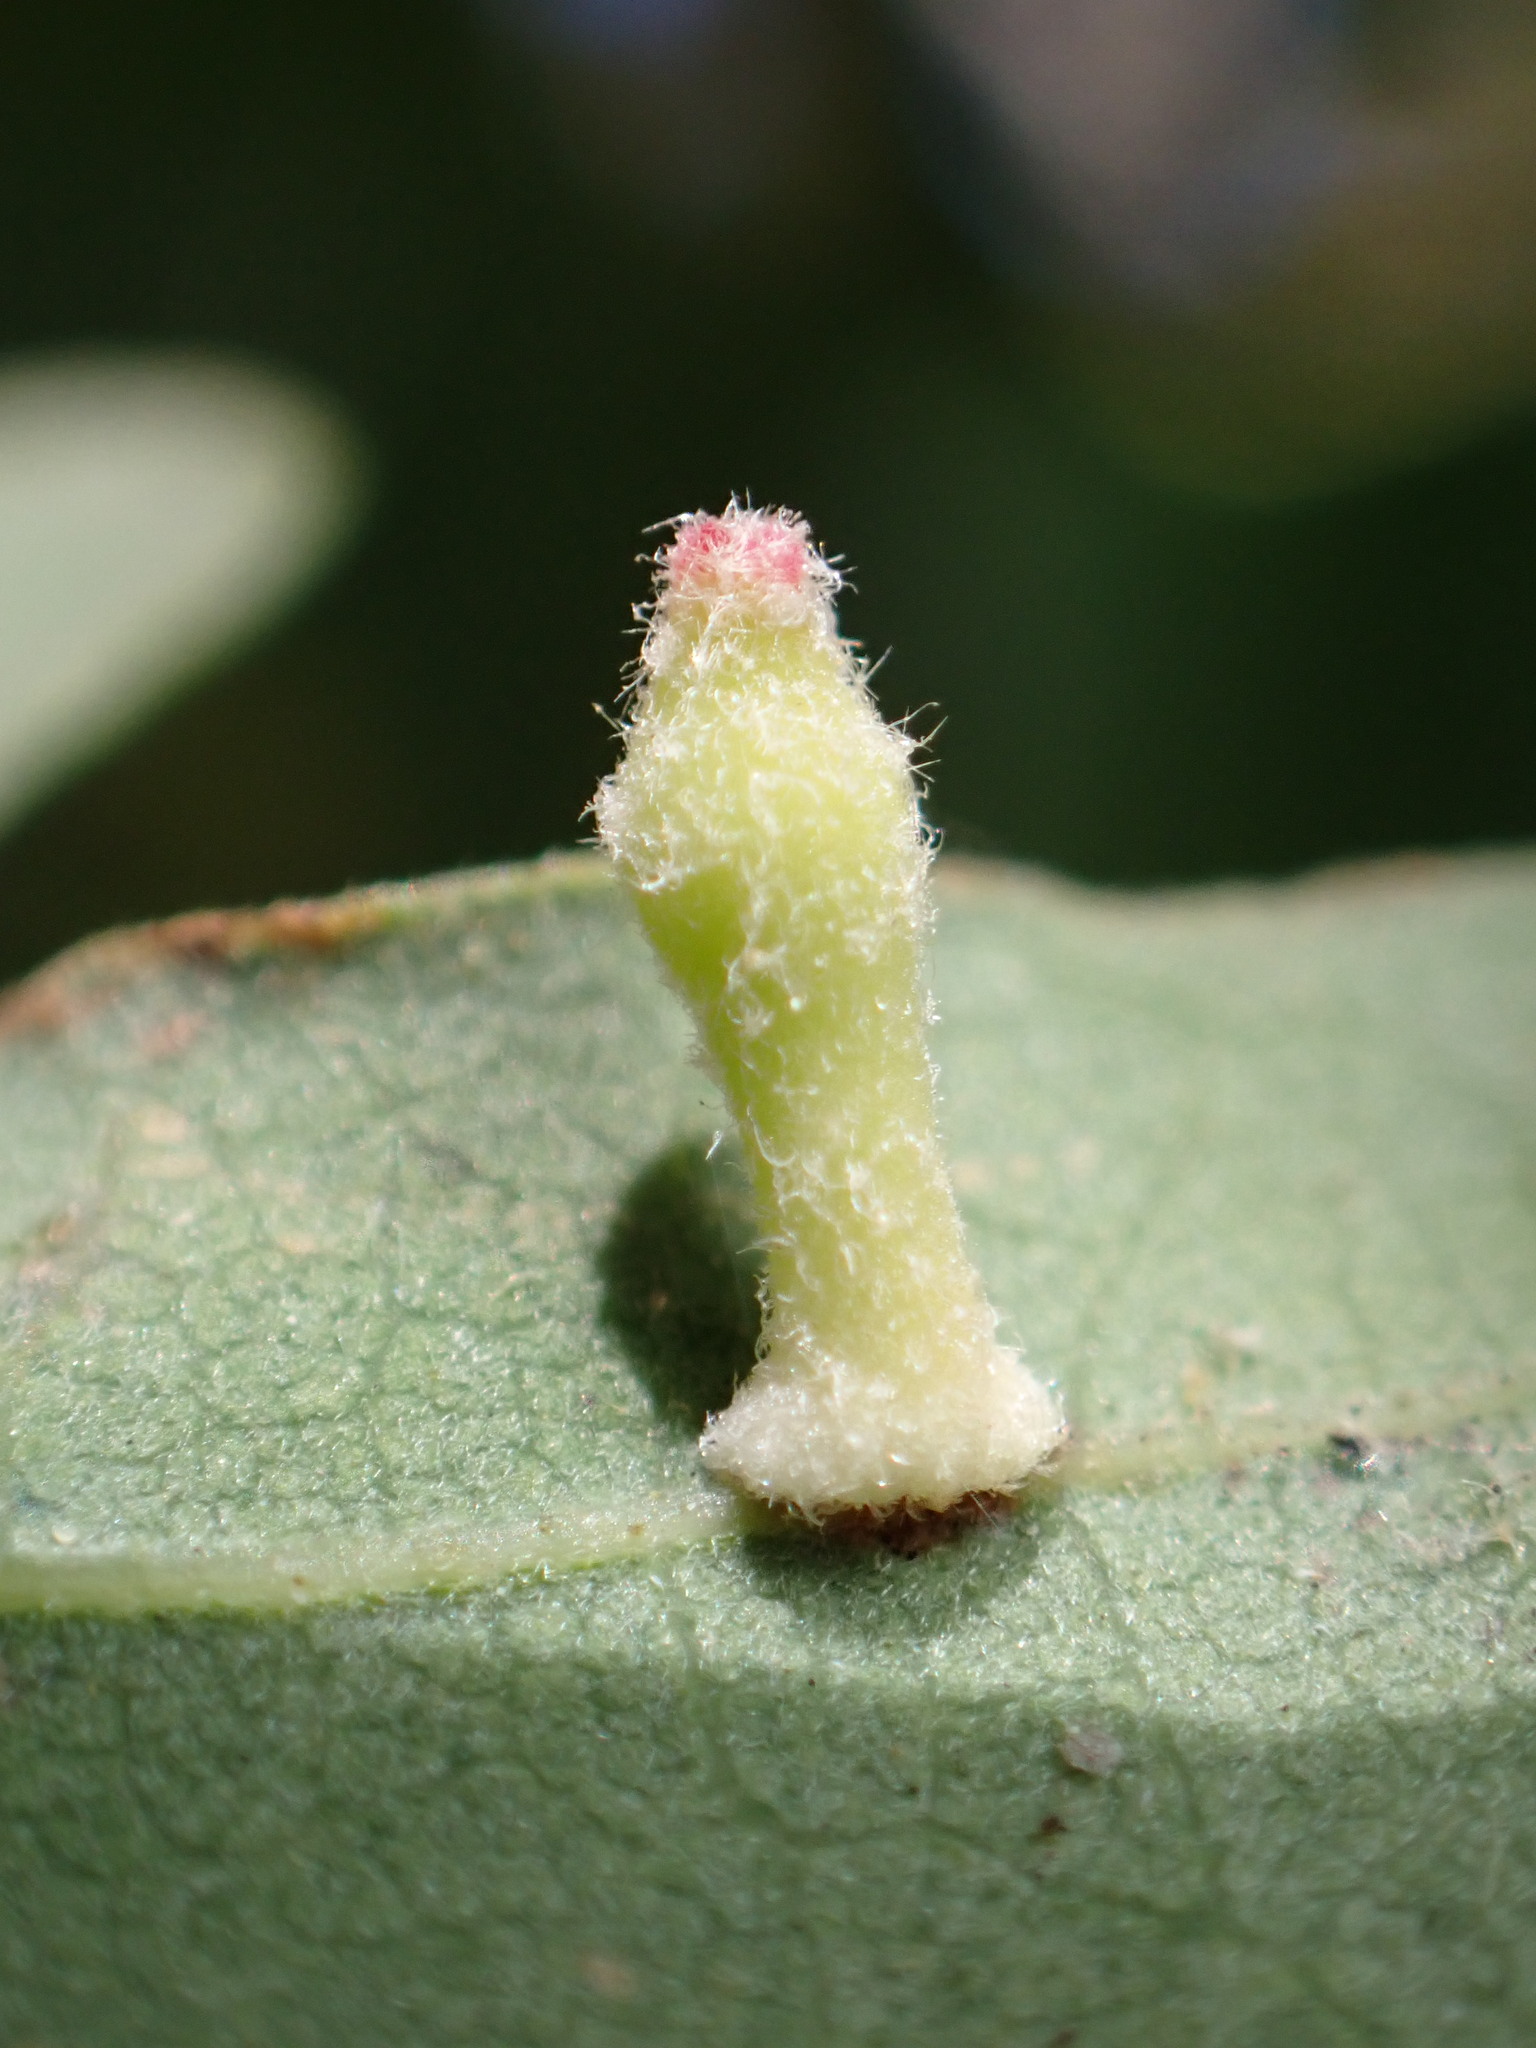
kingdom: Animalia
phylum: Arthropoda
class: Insecta
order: Hymenoptera
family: Cynipidae
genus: Atrusca
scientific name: Atrusca
